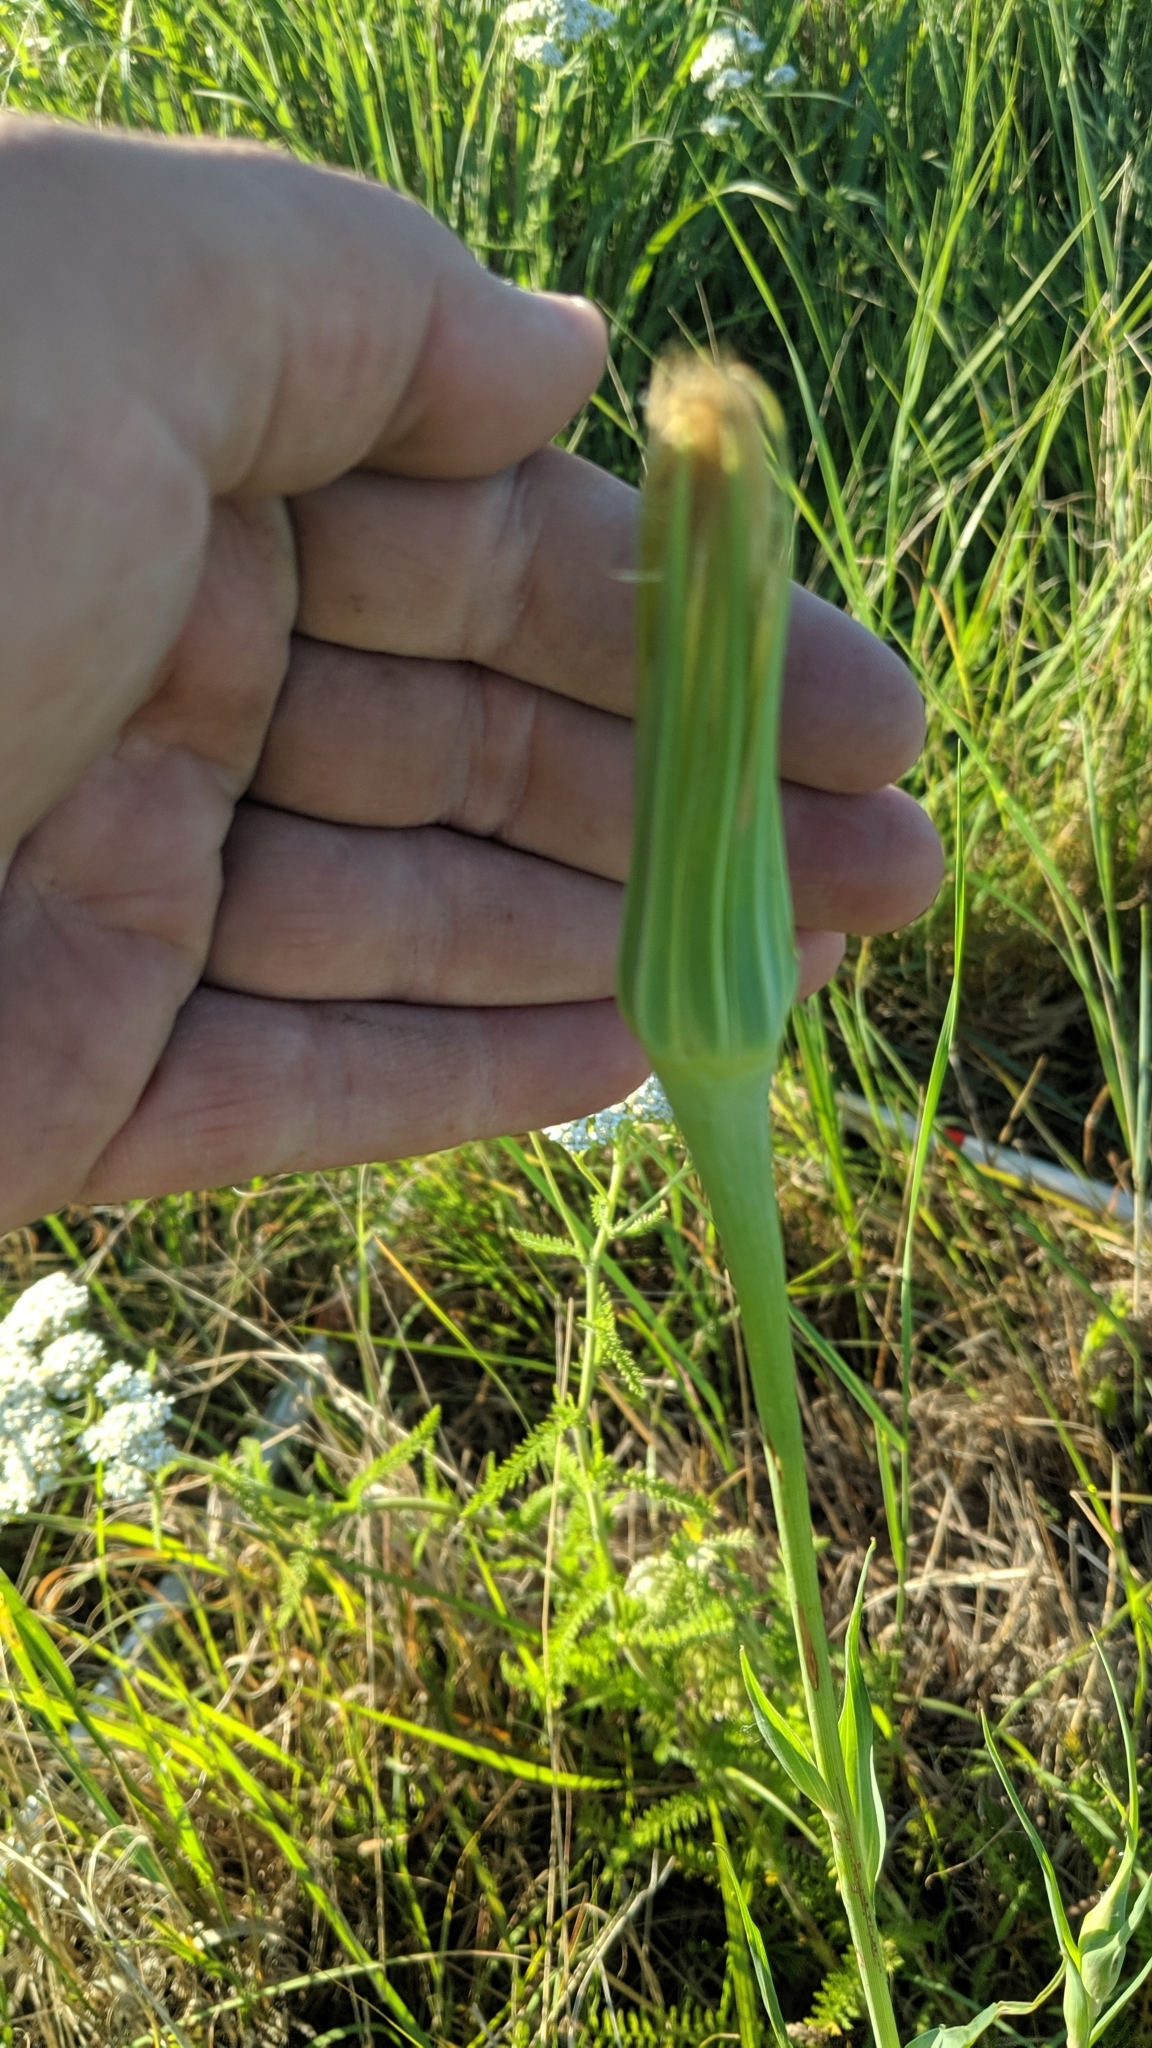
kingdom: Plantae
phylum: Tracheophyta
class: Magnoliopsida
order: Asterales
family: Asteraceae
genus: Tragopogon
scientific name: Tragopogon dubius
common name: Yellow salsify
